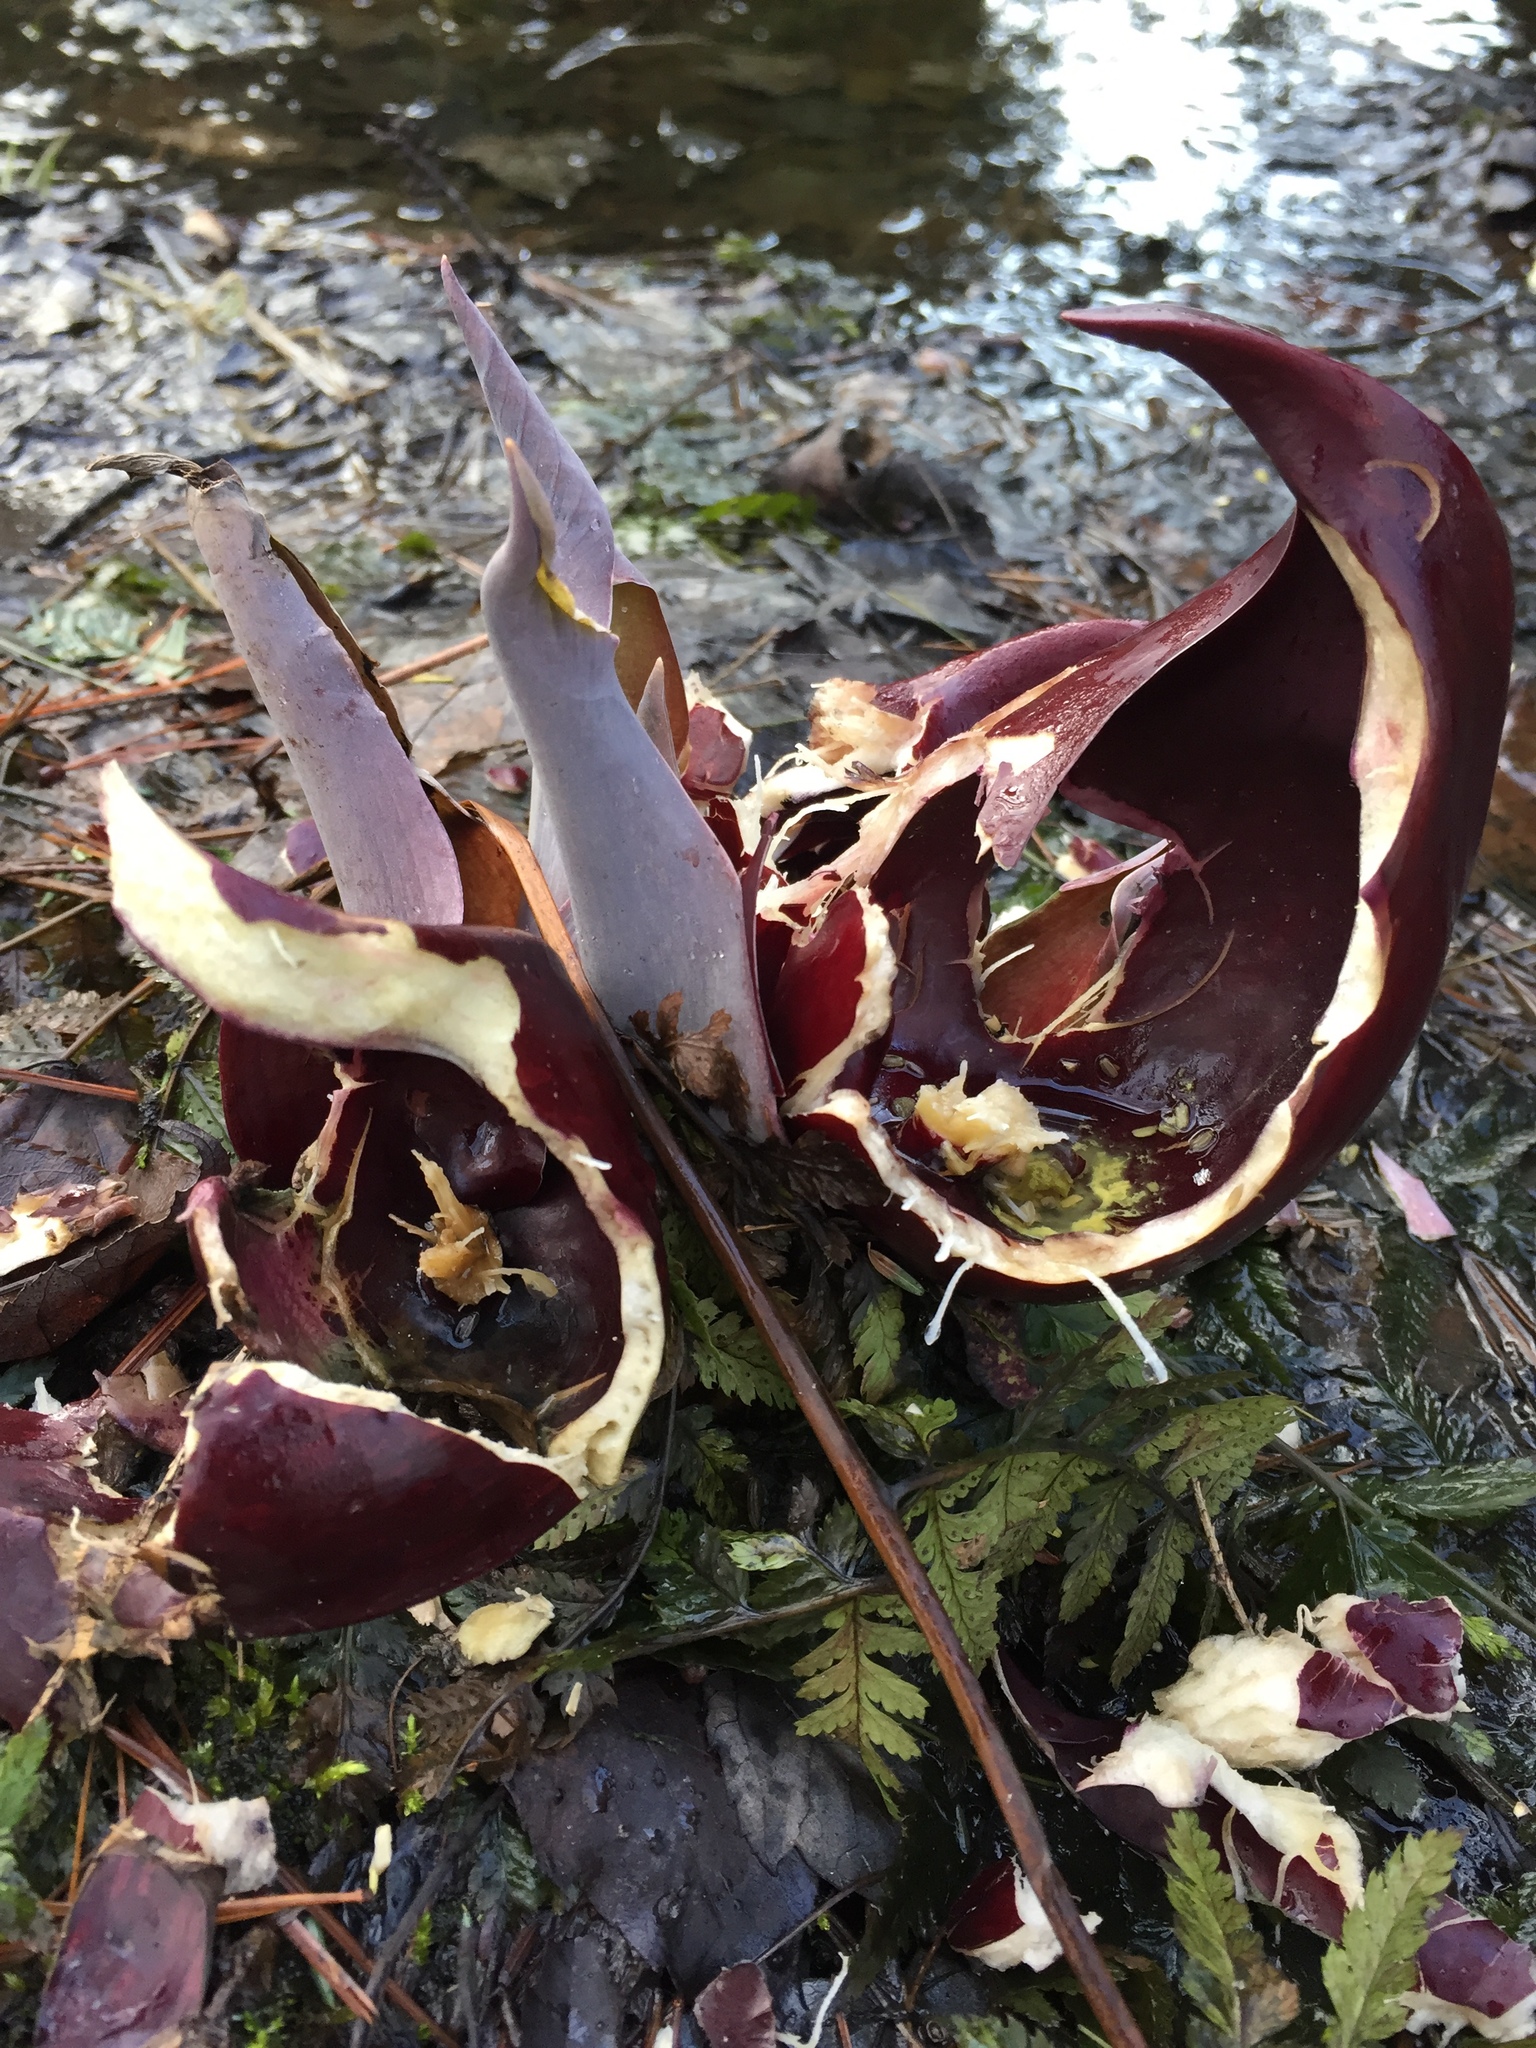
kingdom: Plantae
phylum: Tracheophyta
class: Liliopsida
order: Alismatales
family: Araceae
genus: Symplocarpus
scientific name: Symplocarpus foetidus
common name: Eastern skunk cabbage
